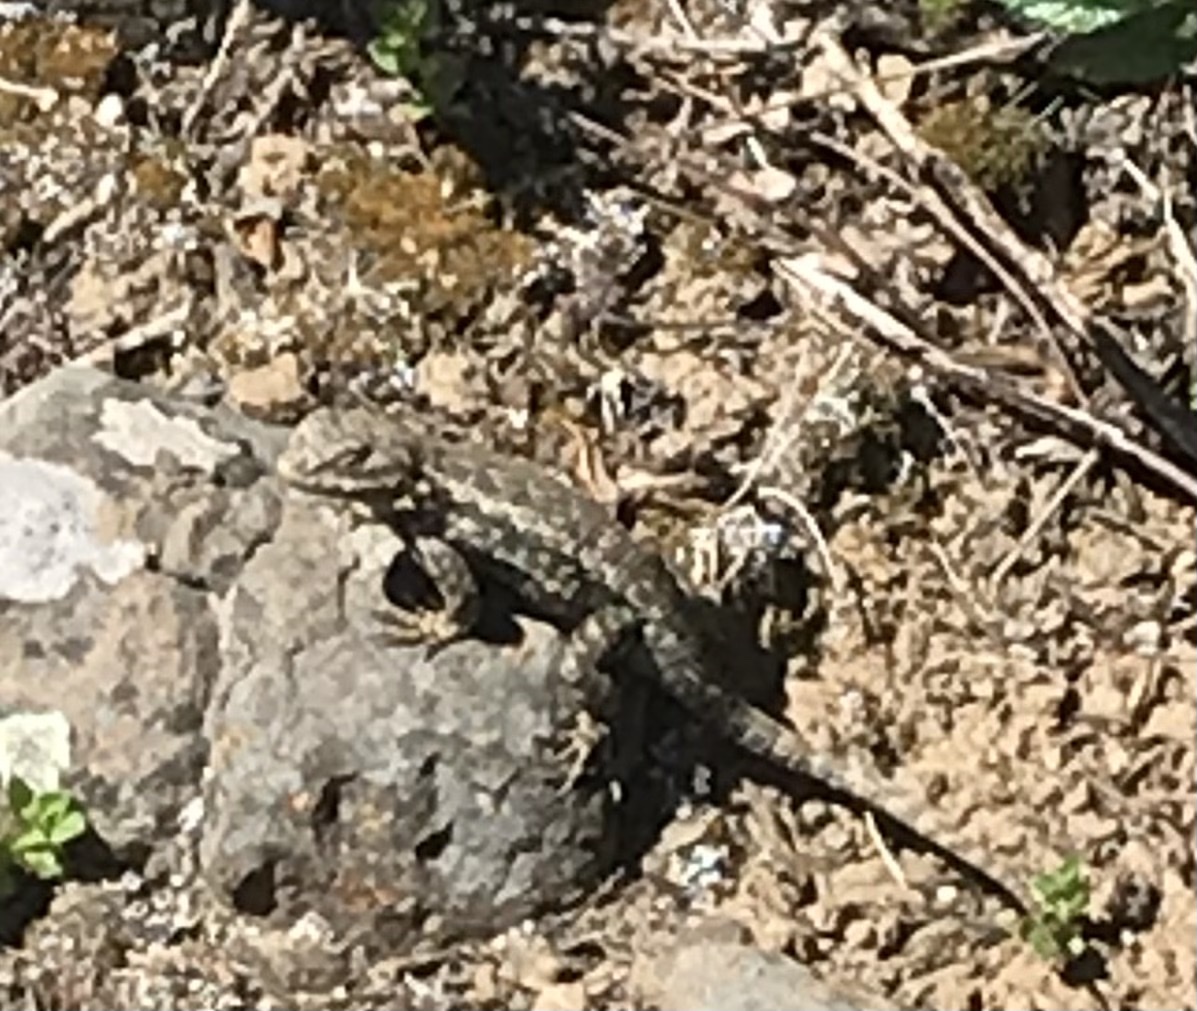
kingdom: Animalia
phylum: Chordata
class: Squamata
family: Phrynosomatidae
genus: Sceloporus
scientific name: Sceloporus occidentalis
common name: Western fence lizard
